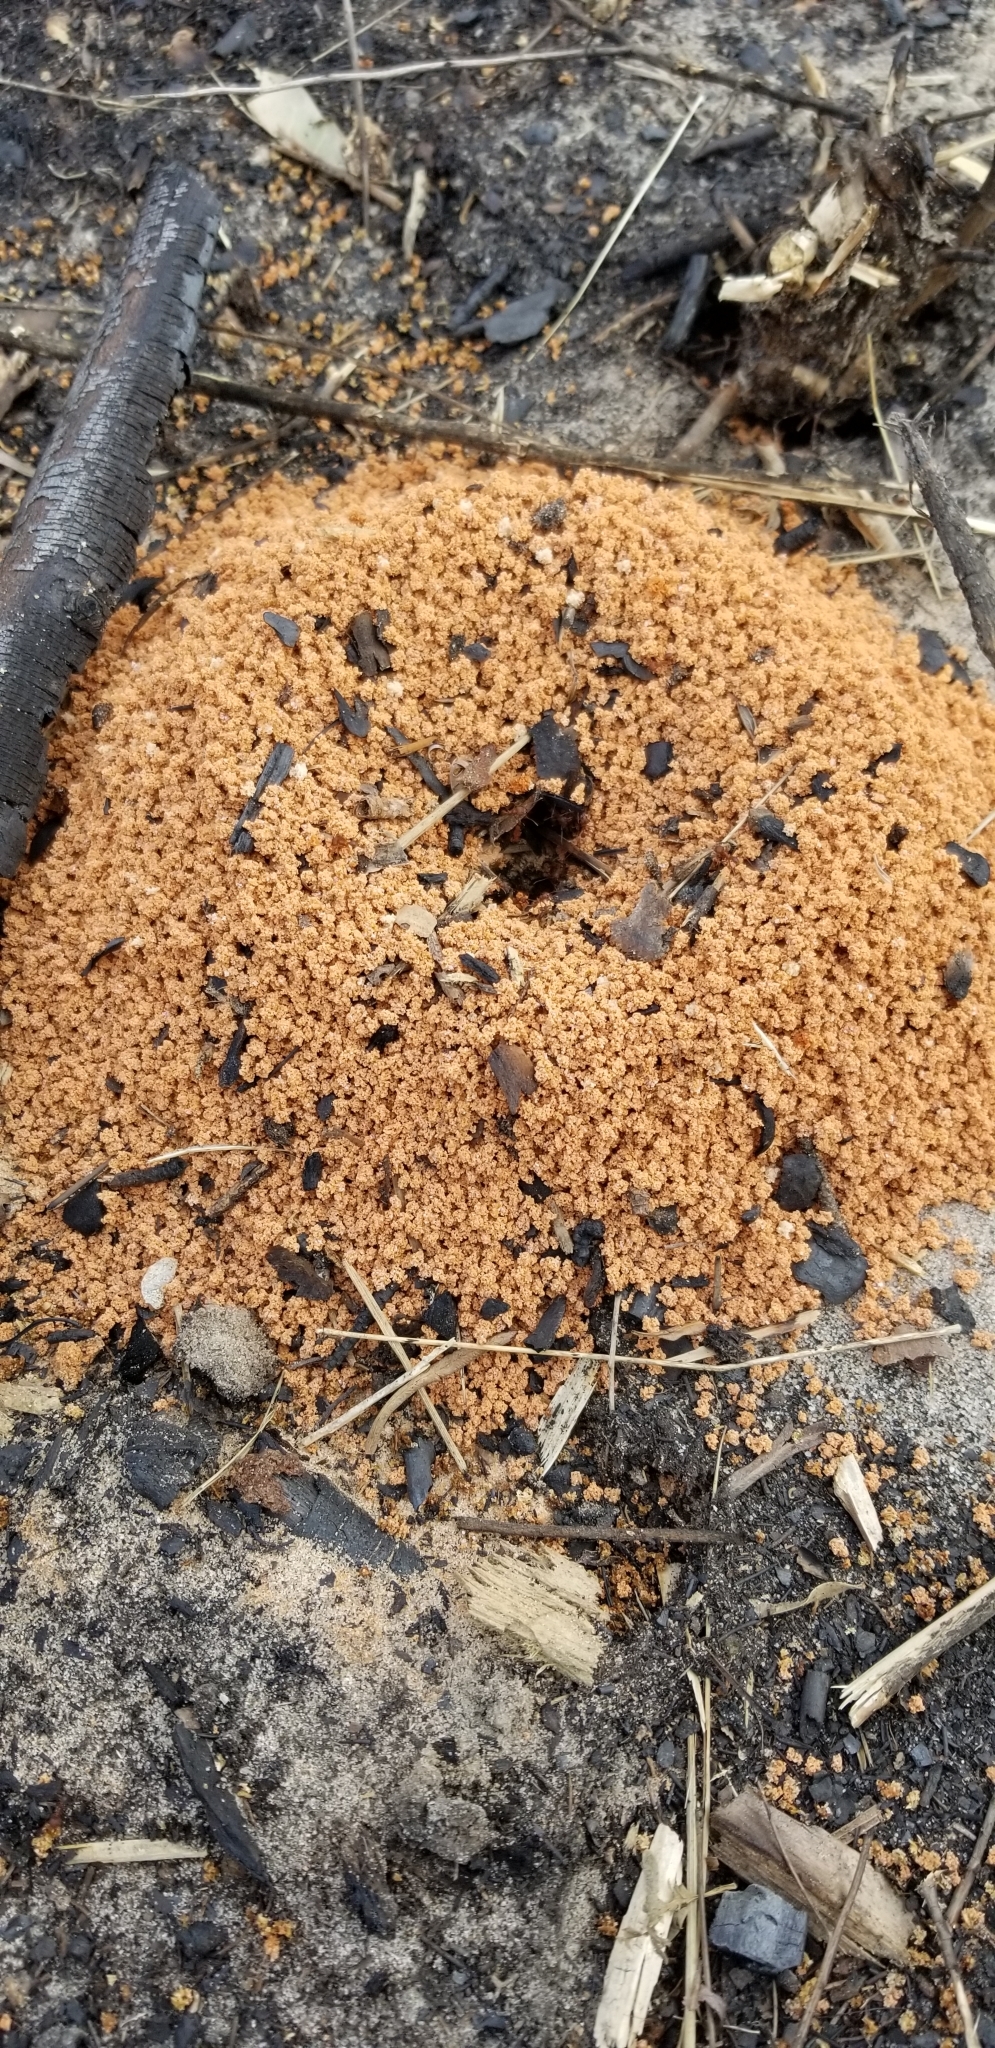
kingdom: Animalia
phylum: Arthropoda
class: Insecta
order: Hymenoptera
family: Formicidae
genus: Atta
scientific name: Atta texana
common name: Texas leafcutting ant
